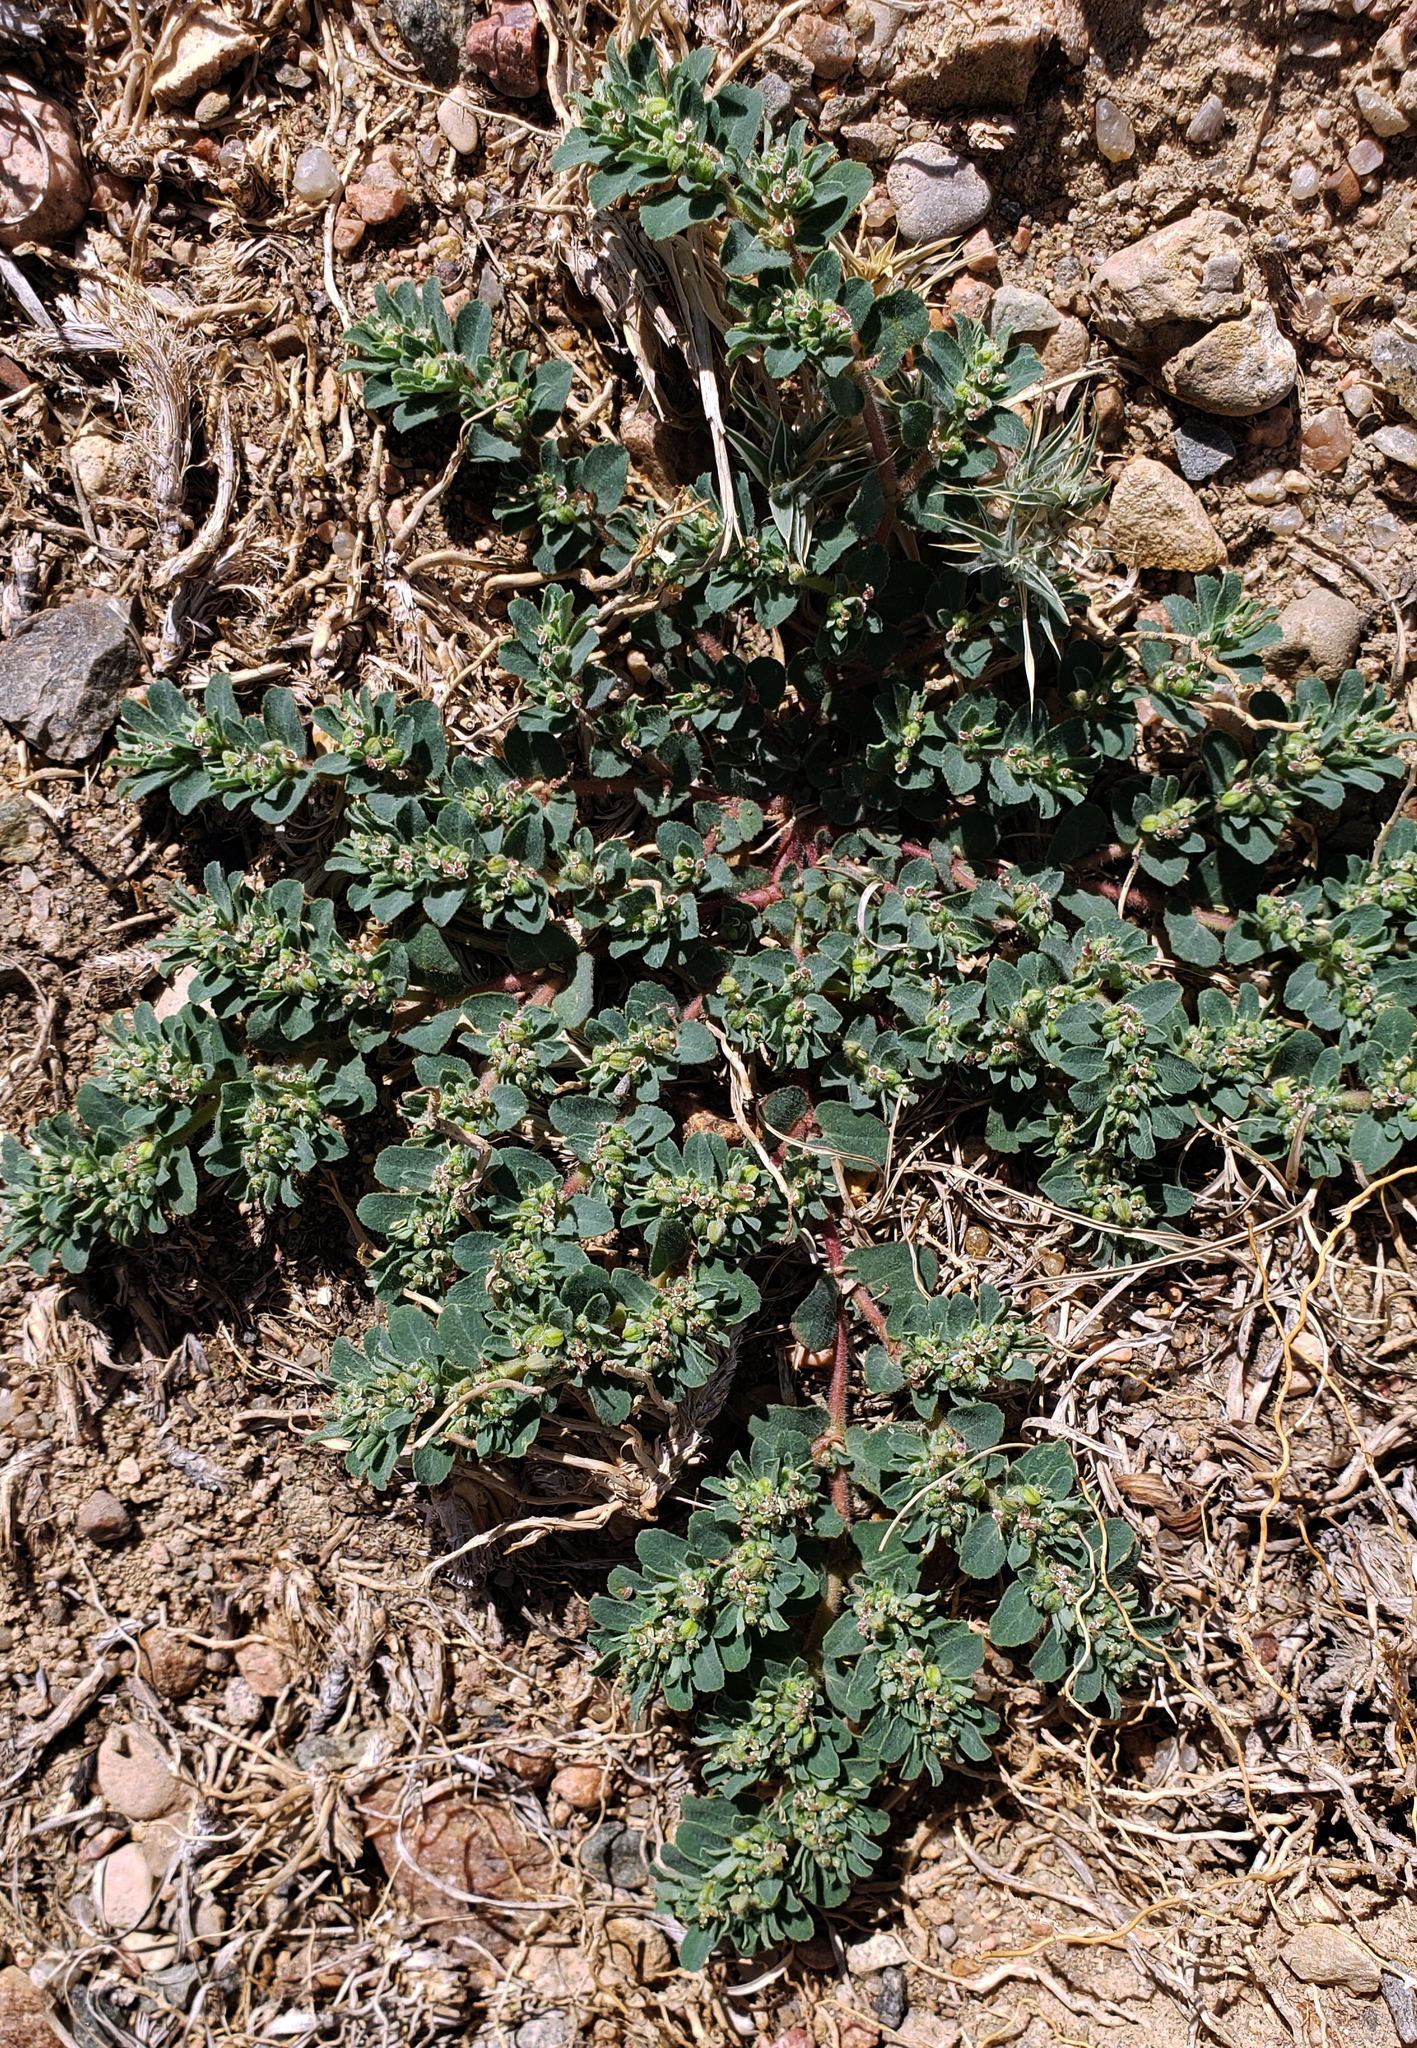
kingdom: Plantae
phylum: Tracheophyta
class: Magnoliopsida
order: Malpighiales
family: Euphorbiaceae
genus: Euphorbia
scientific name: Euphorbia stictospora
